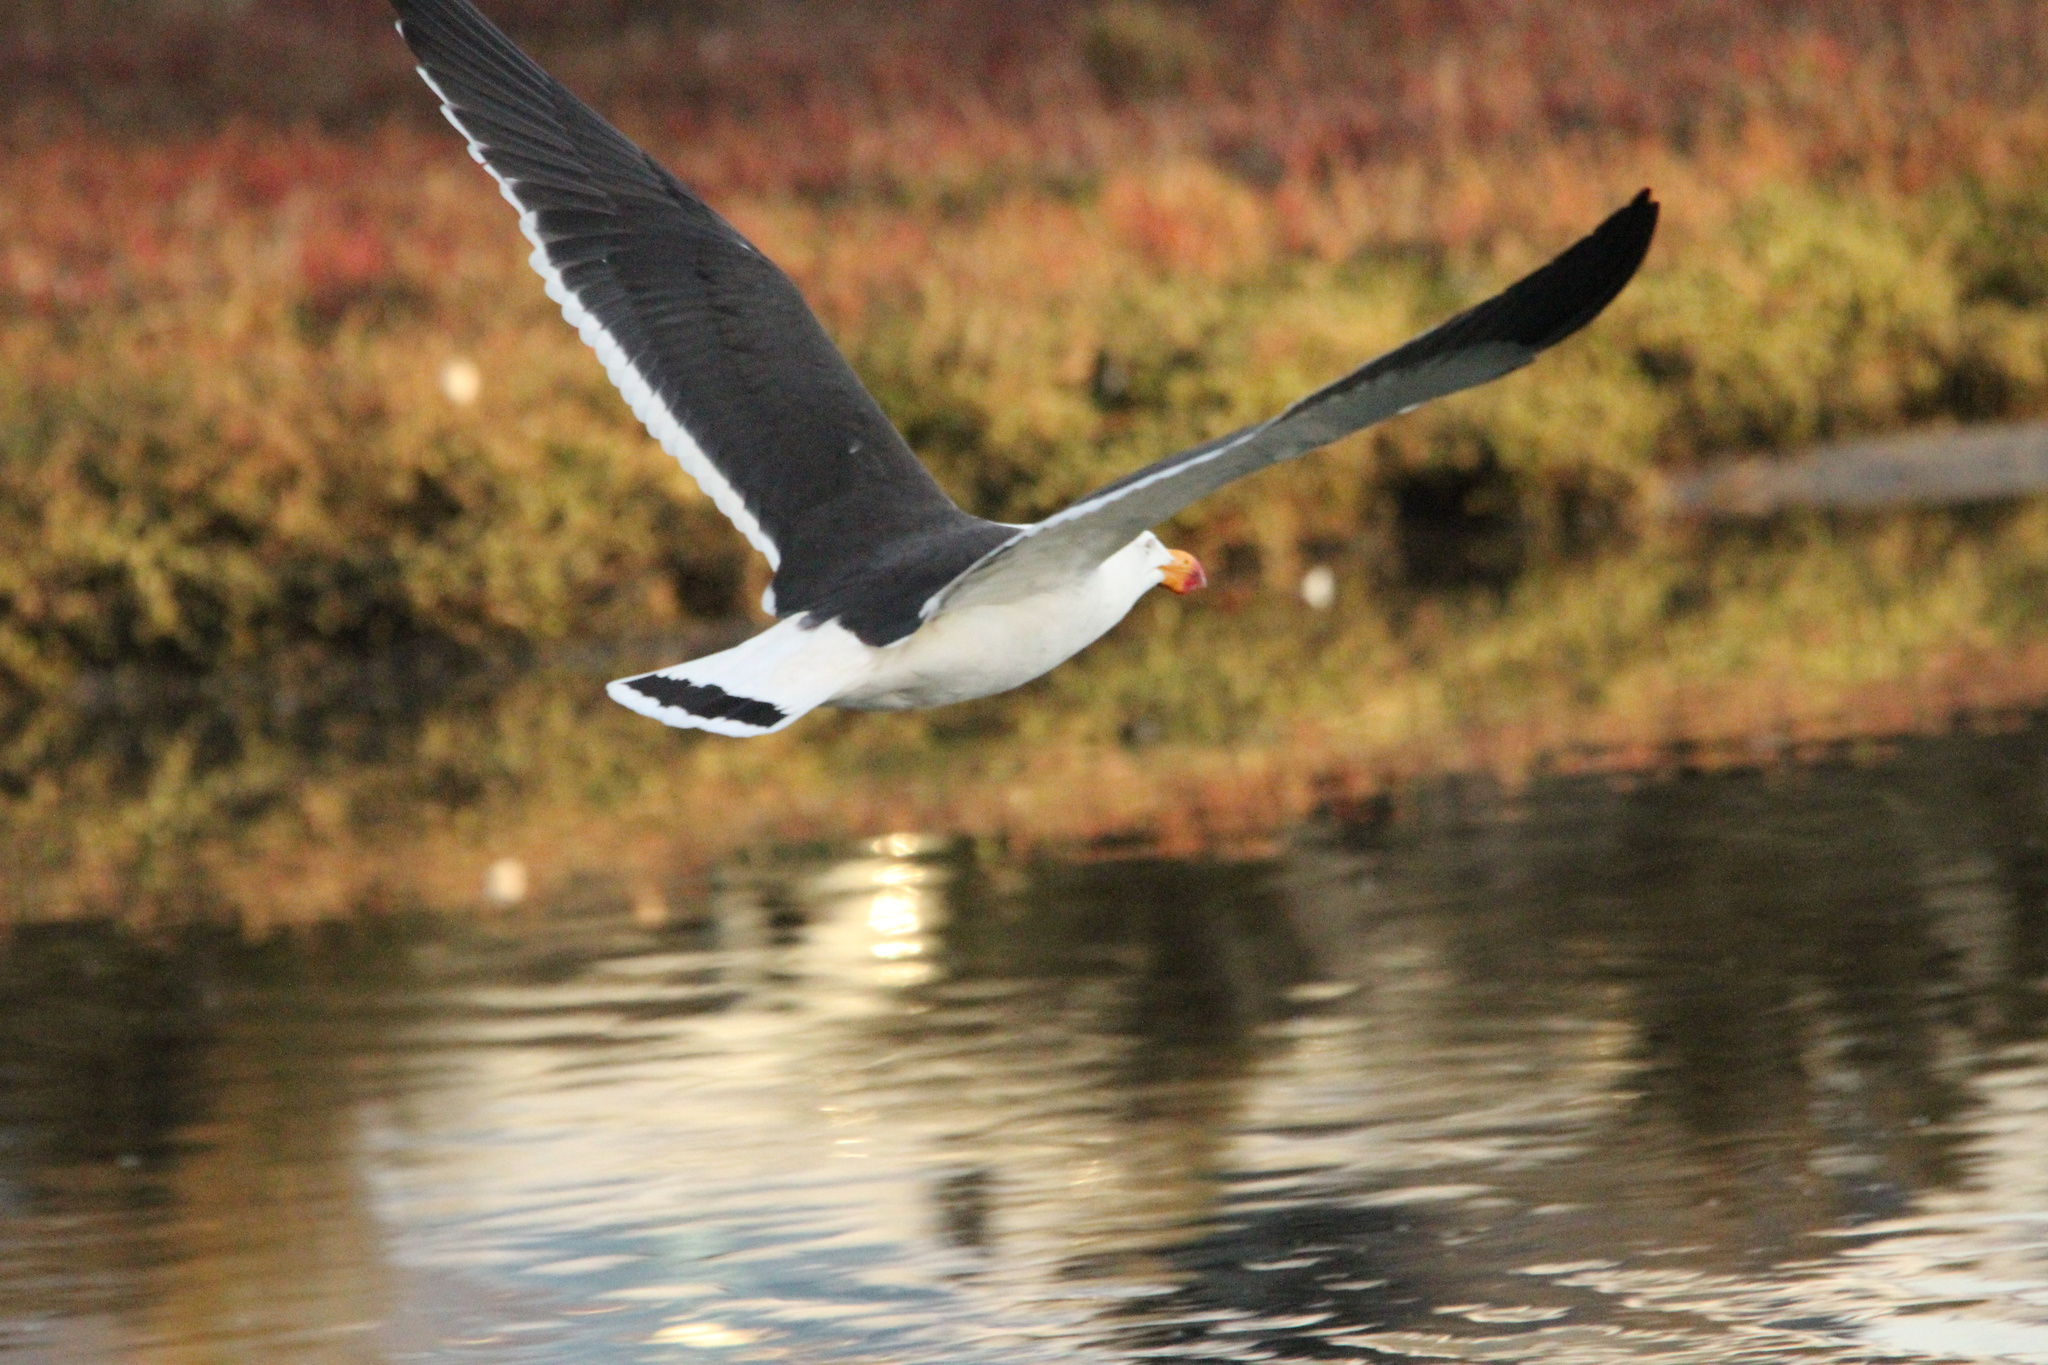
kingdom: Animalia
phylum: Chordata
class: Aves
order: Charadriiformes
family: Laridae
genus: Larus
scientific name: Larus pacificus
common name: Pacific gull
